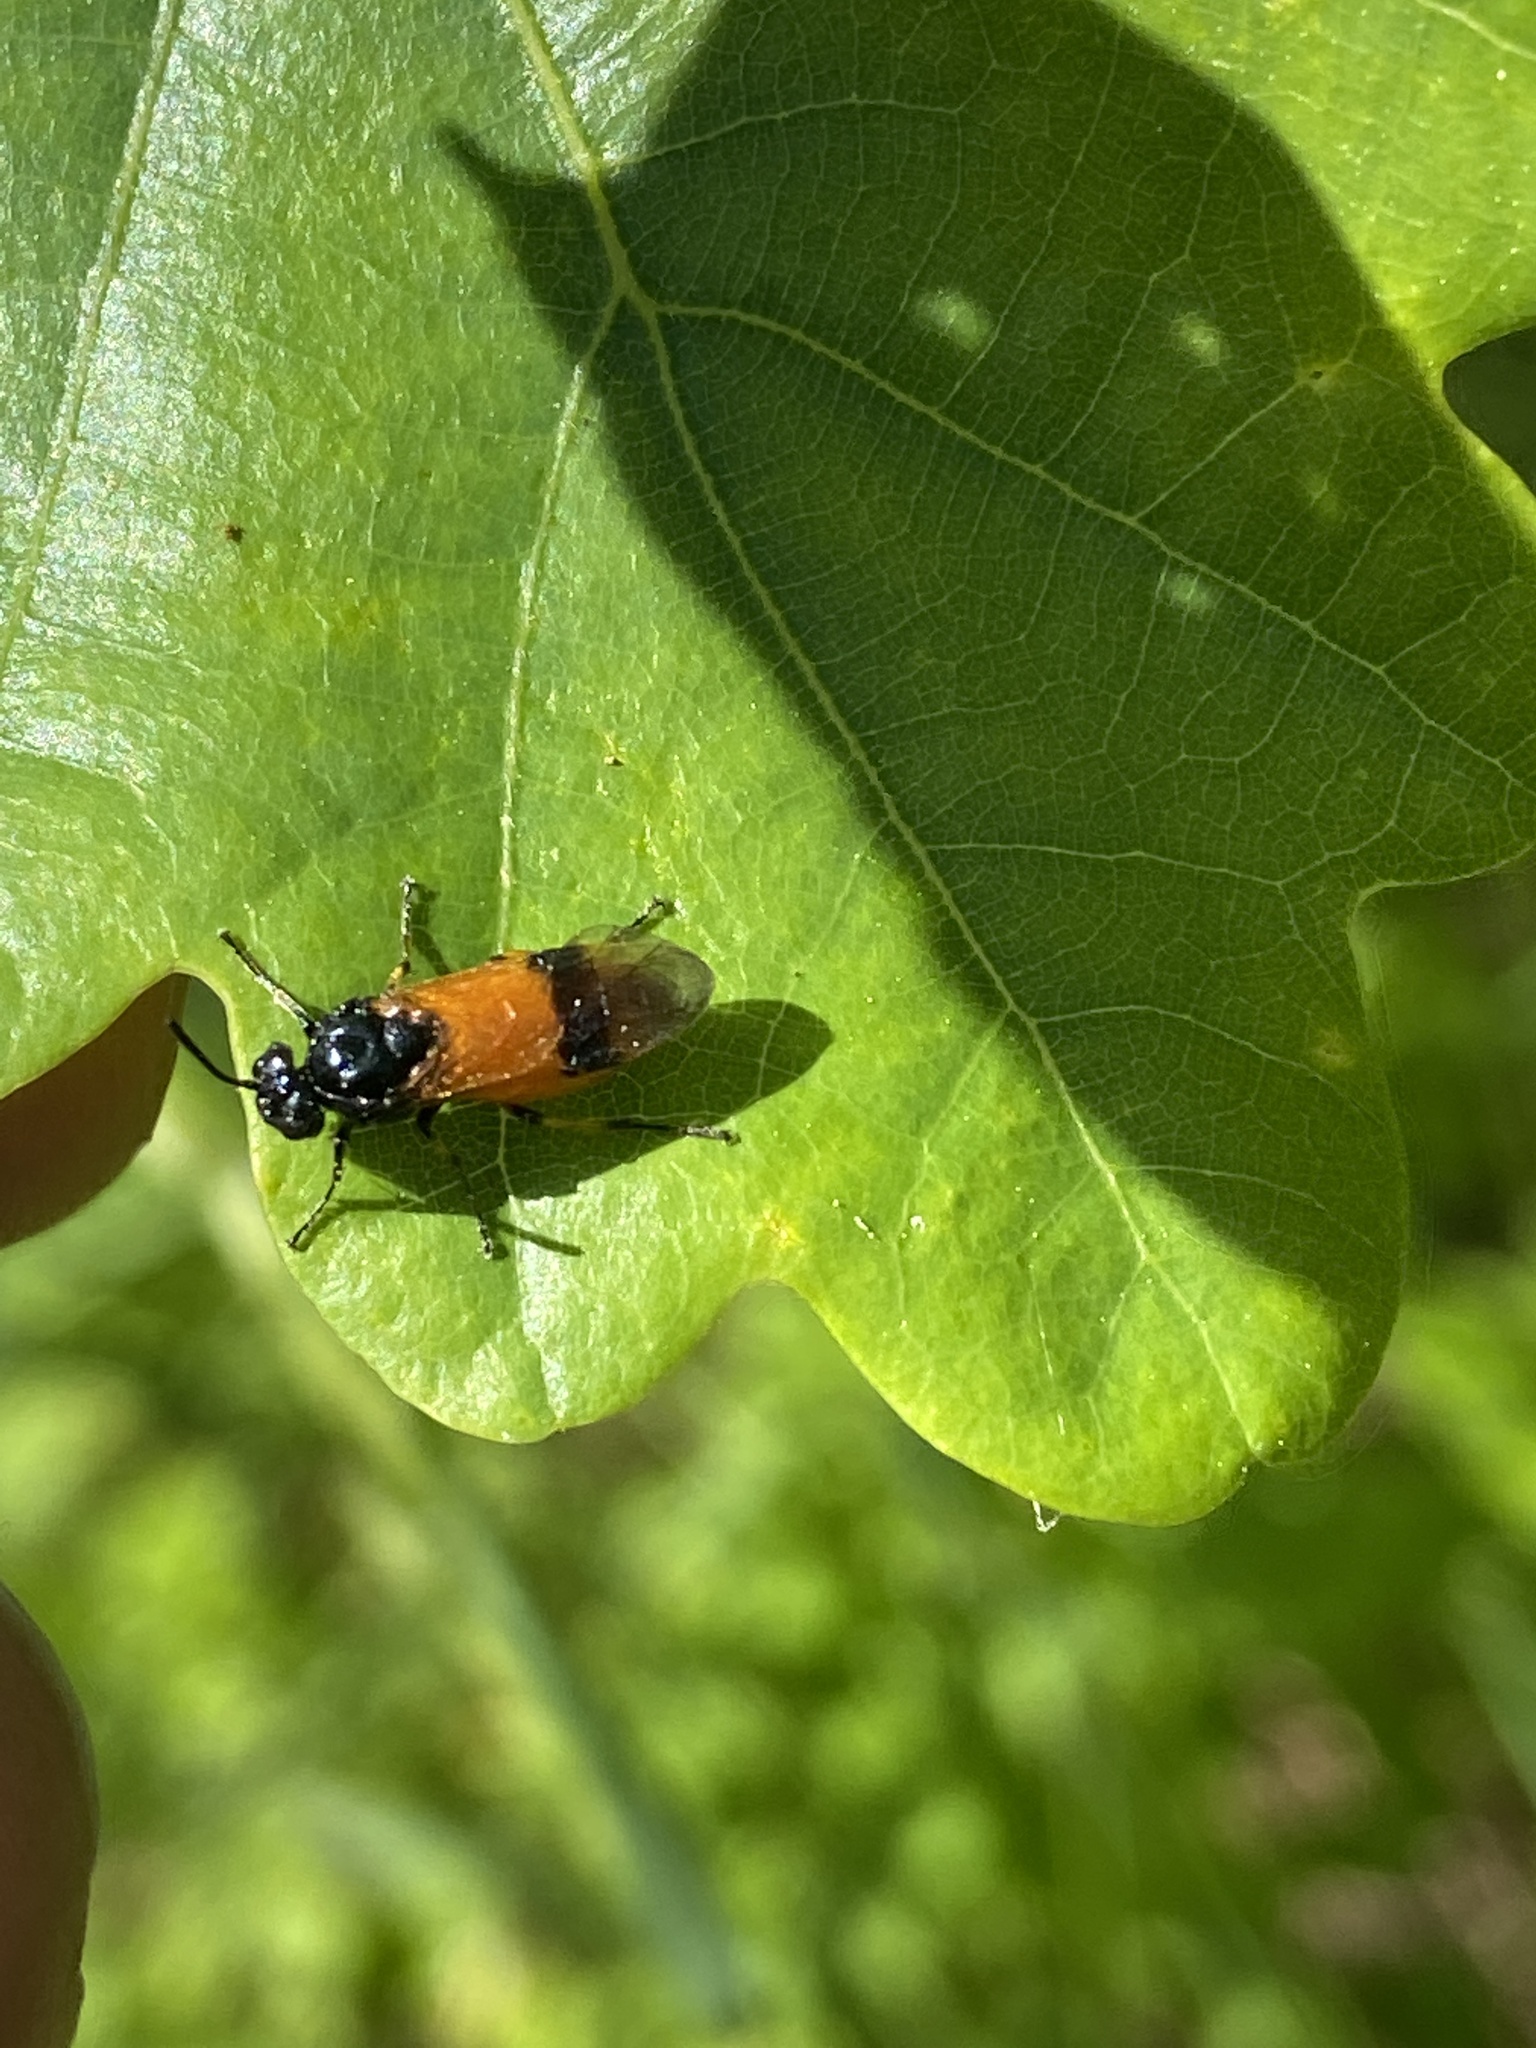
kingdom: Animalia
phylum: Arthropoda
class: Insecta
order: Hymenoptera
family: Argidae
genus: Arge
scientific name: Arge cyanocrocea
